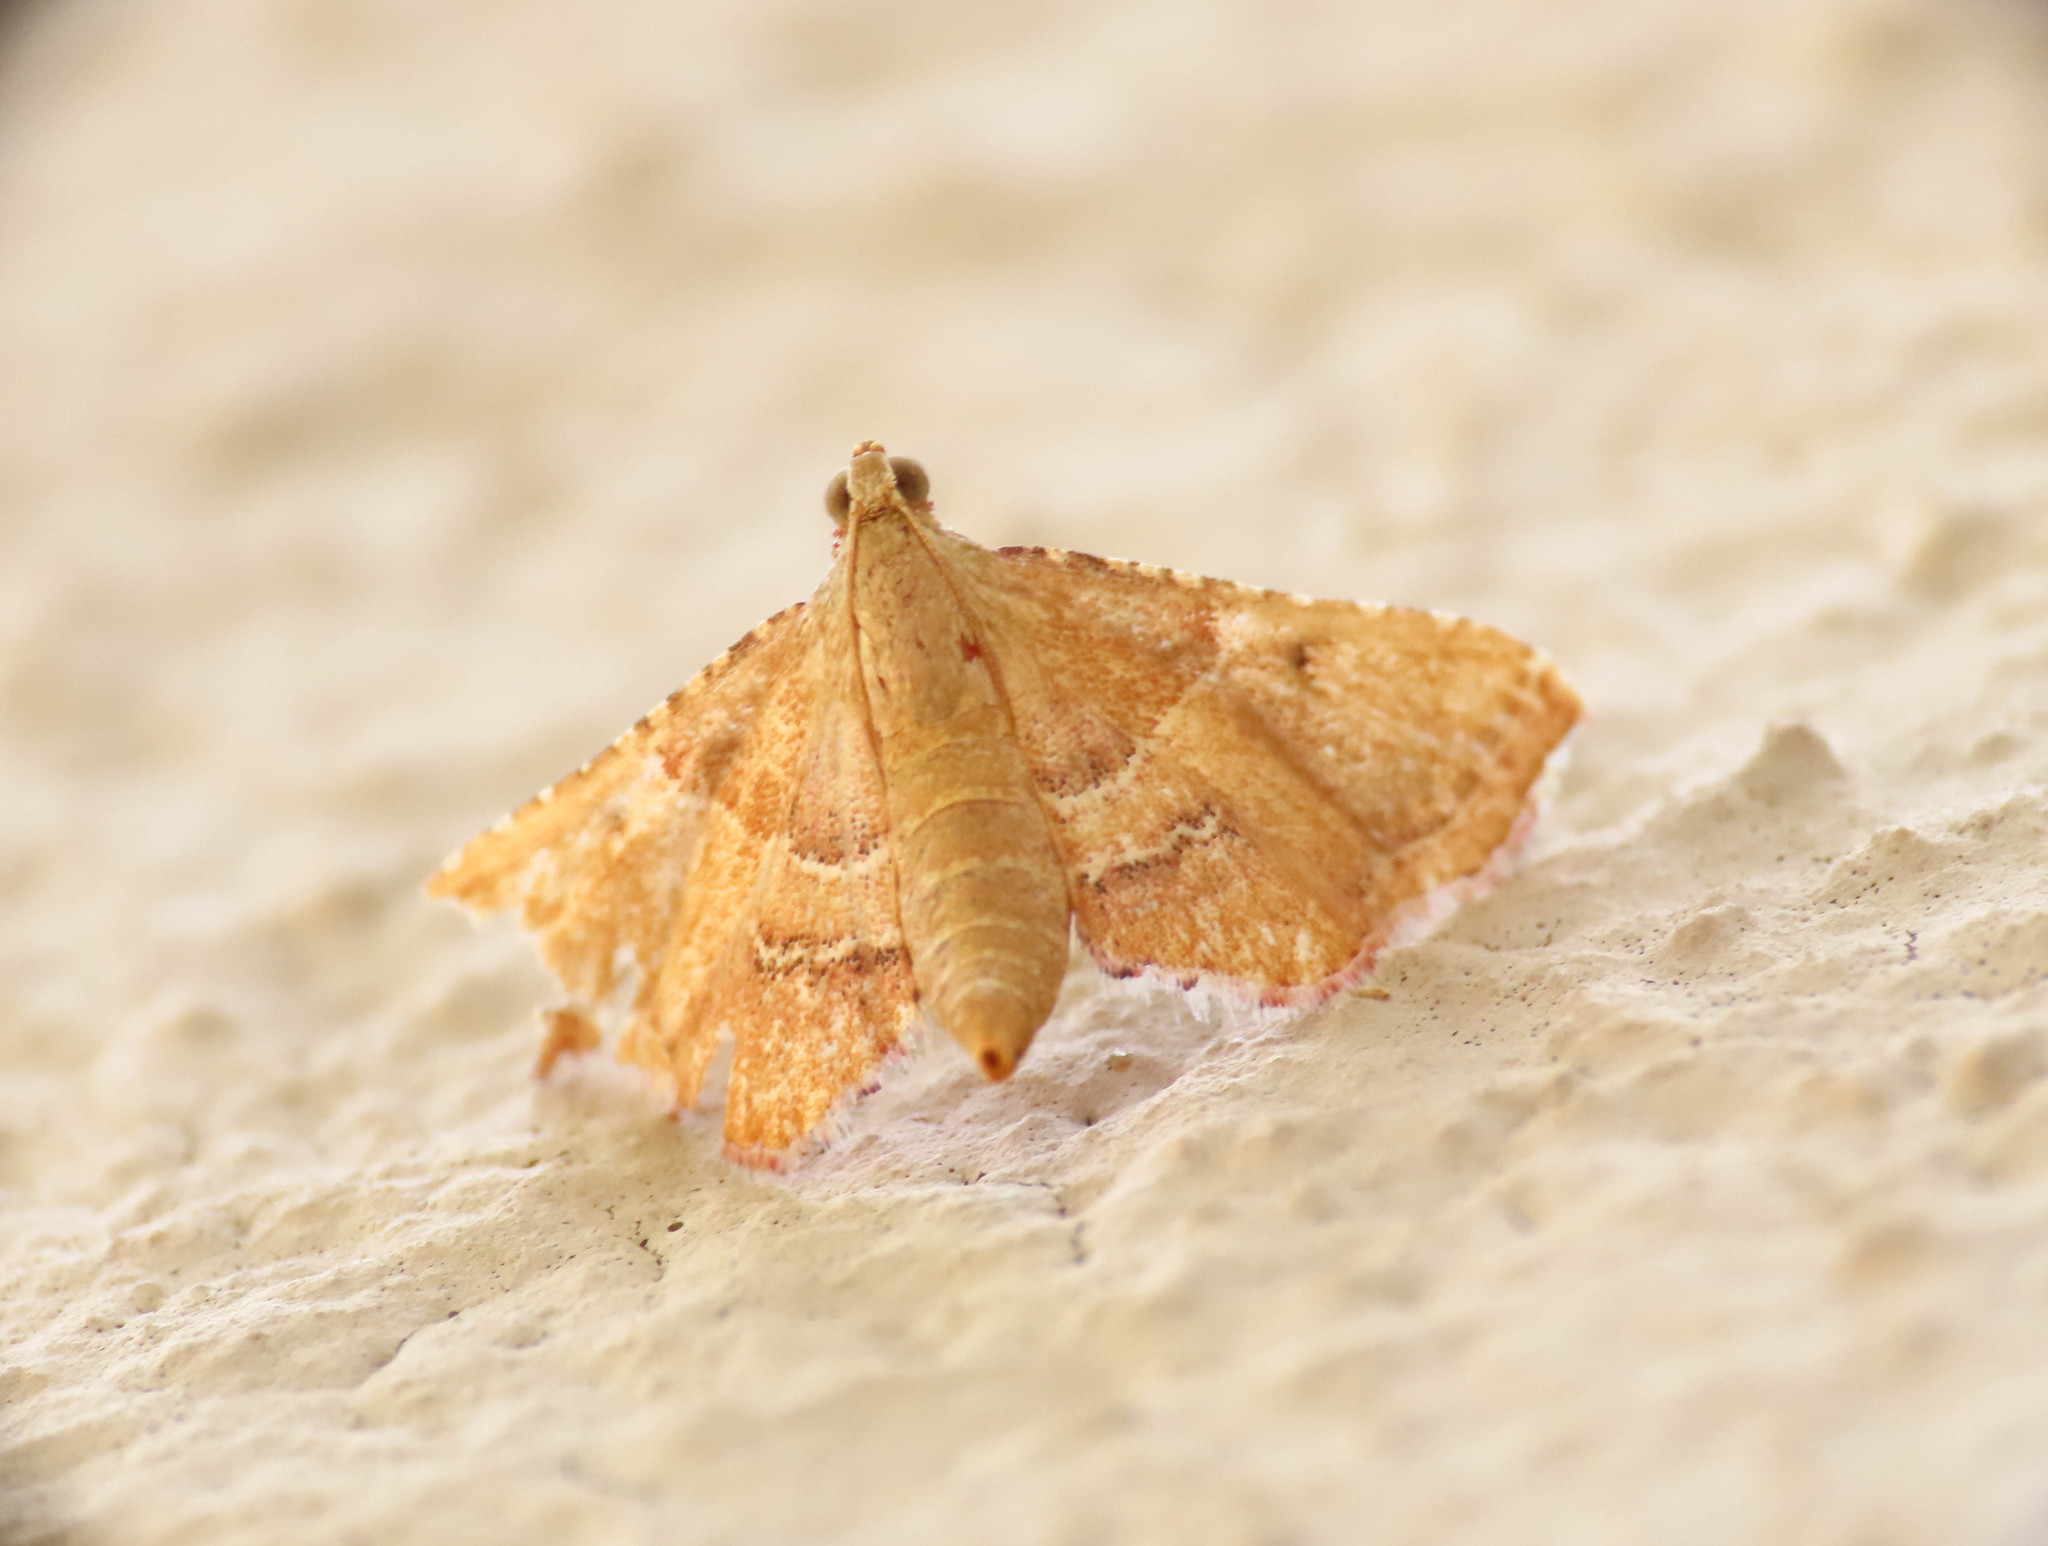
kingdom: Animalia
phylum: Arthropoda
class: Insecta
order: Lepidoptera
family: Pyralidae
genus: Endotricha
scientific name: Endotricha flammealis
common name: Rosy tabby
